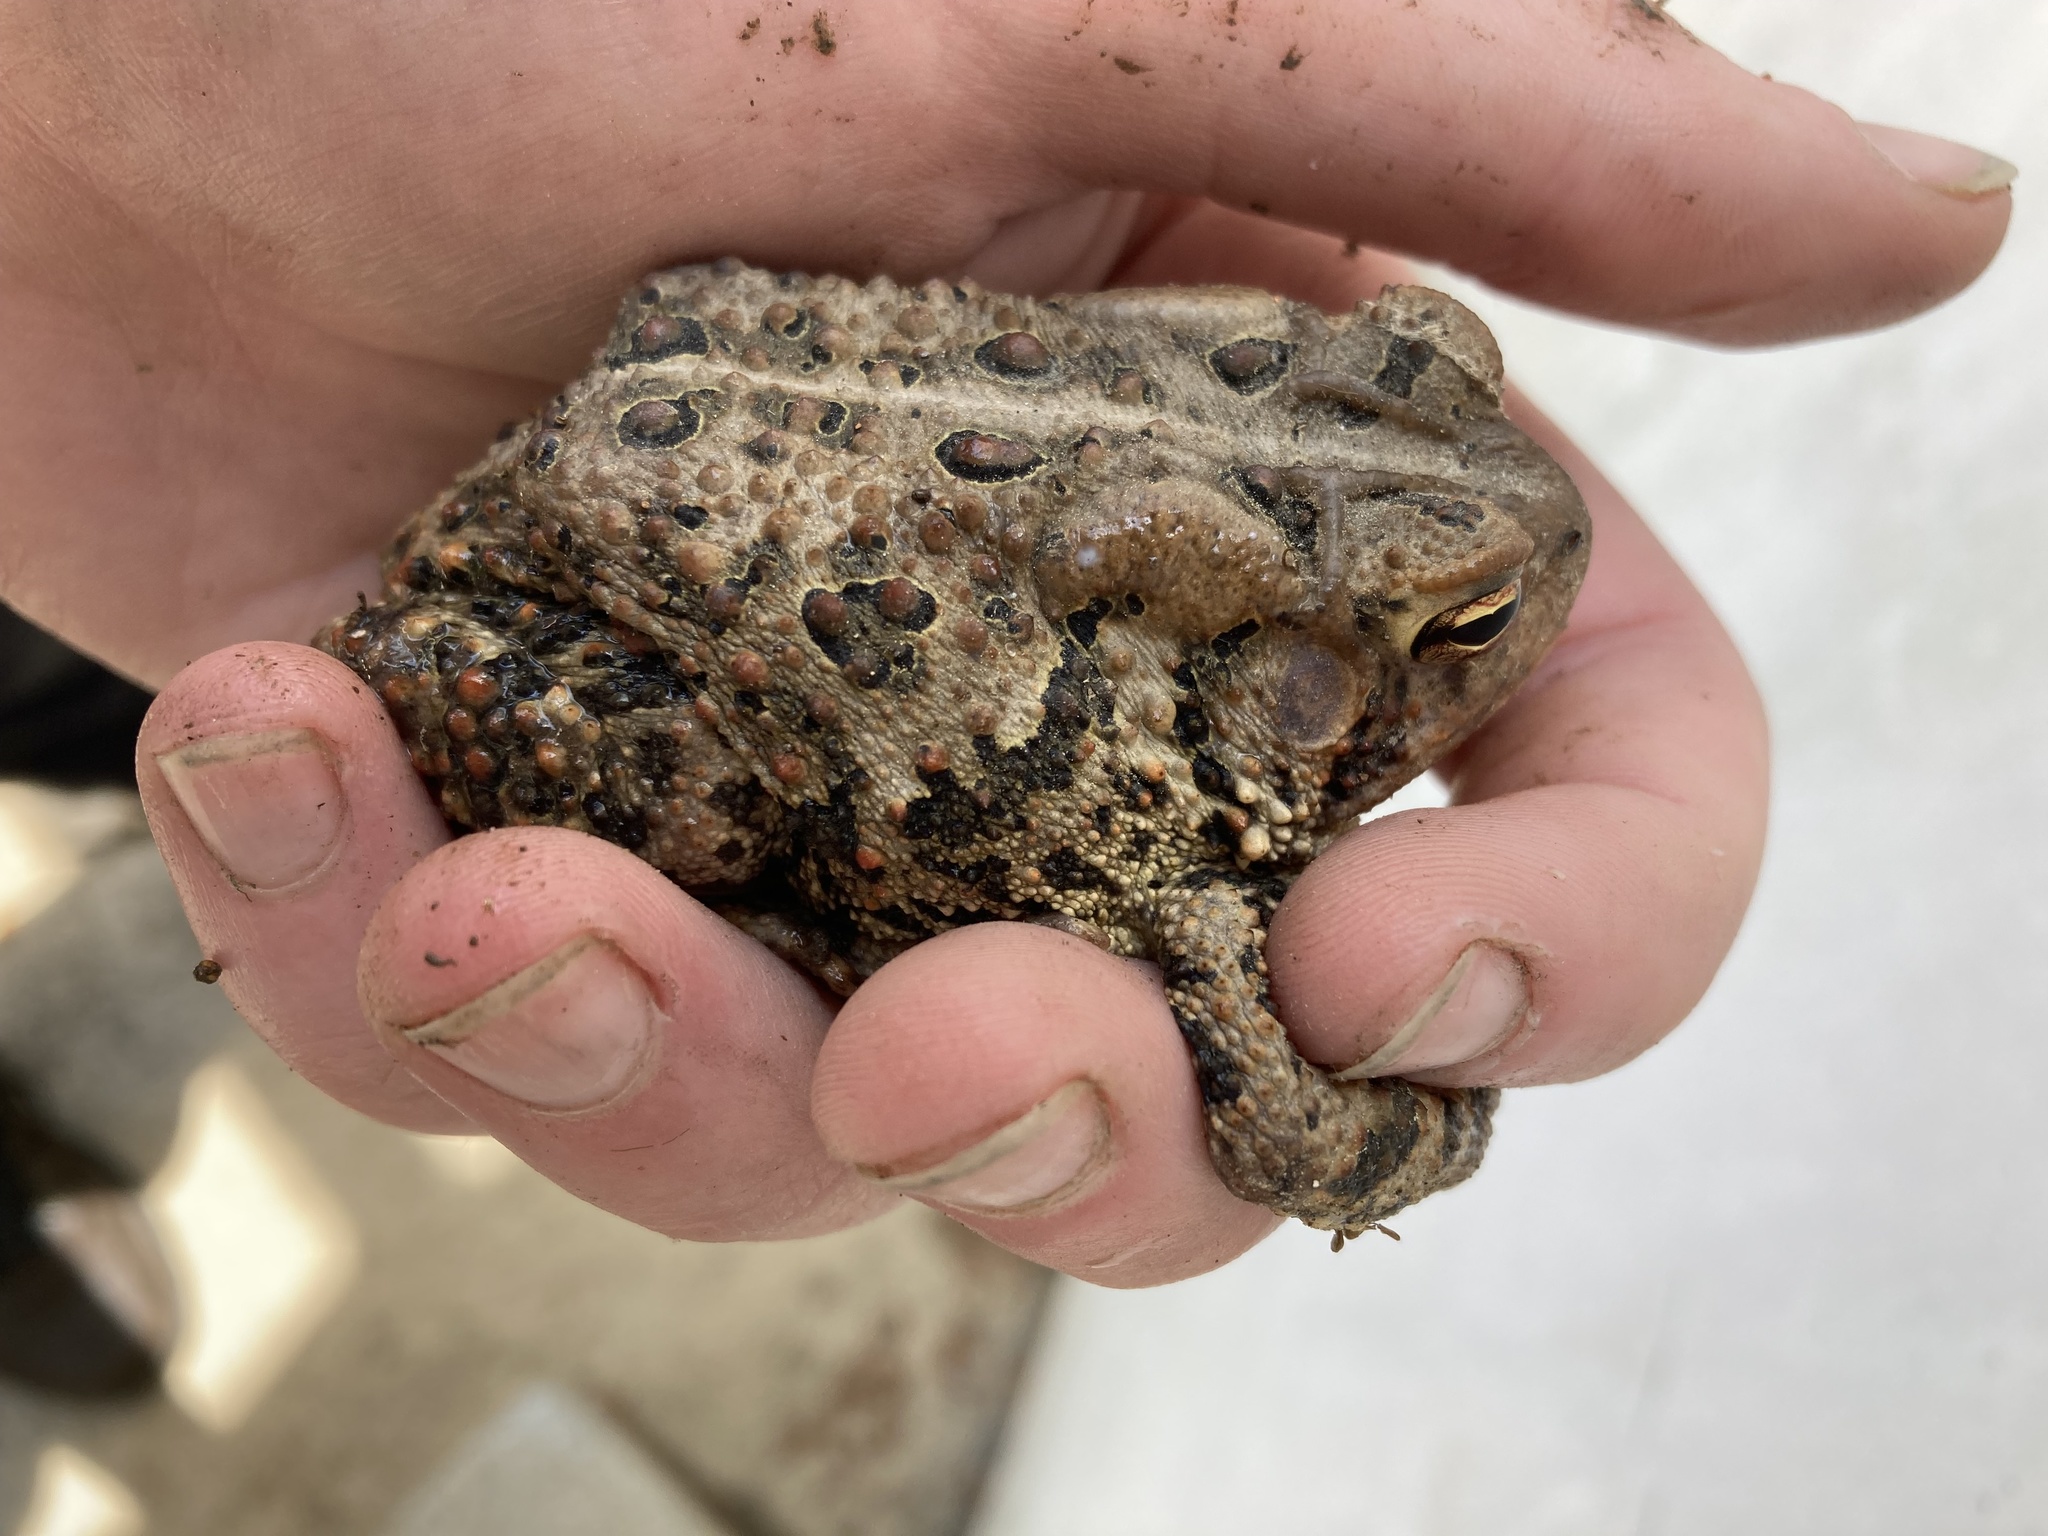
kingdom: Animalia
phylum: Chordata
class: Amphibia
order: Anura
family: Bufonidae
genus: Anaxyrus
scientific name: Anaxyrus americanus
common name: American toad
